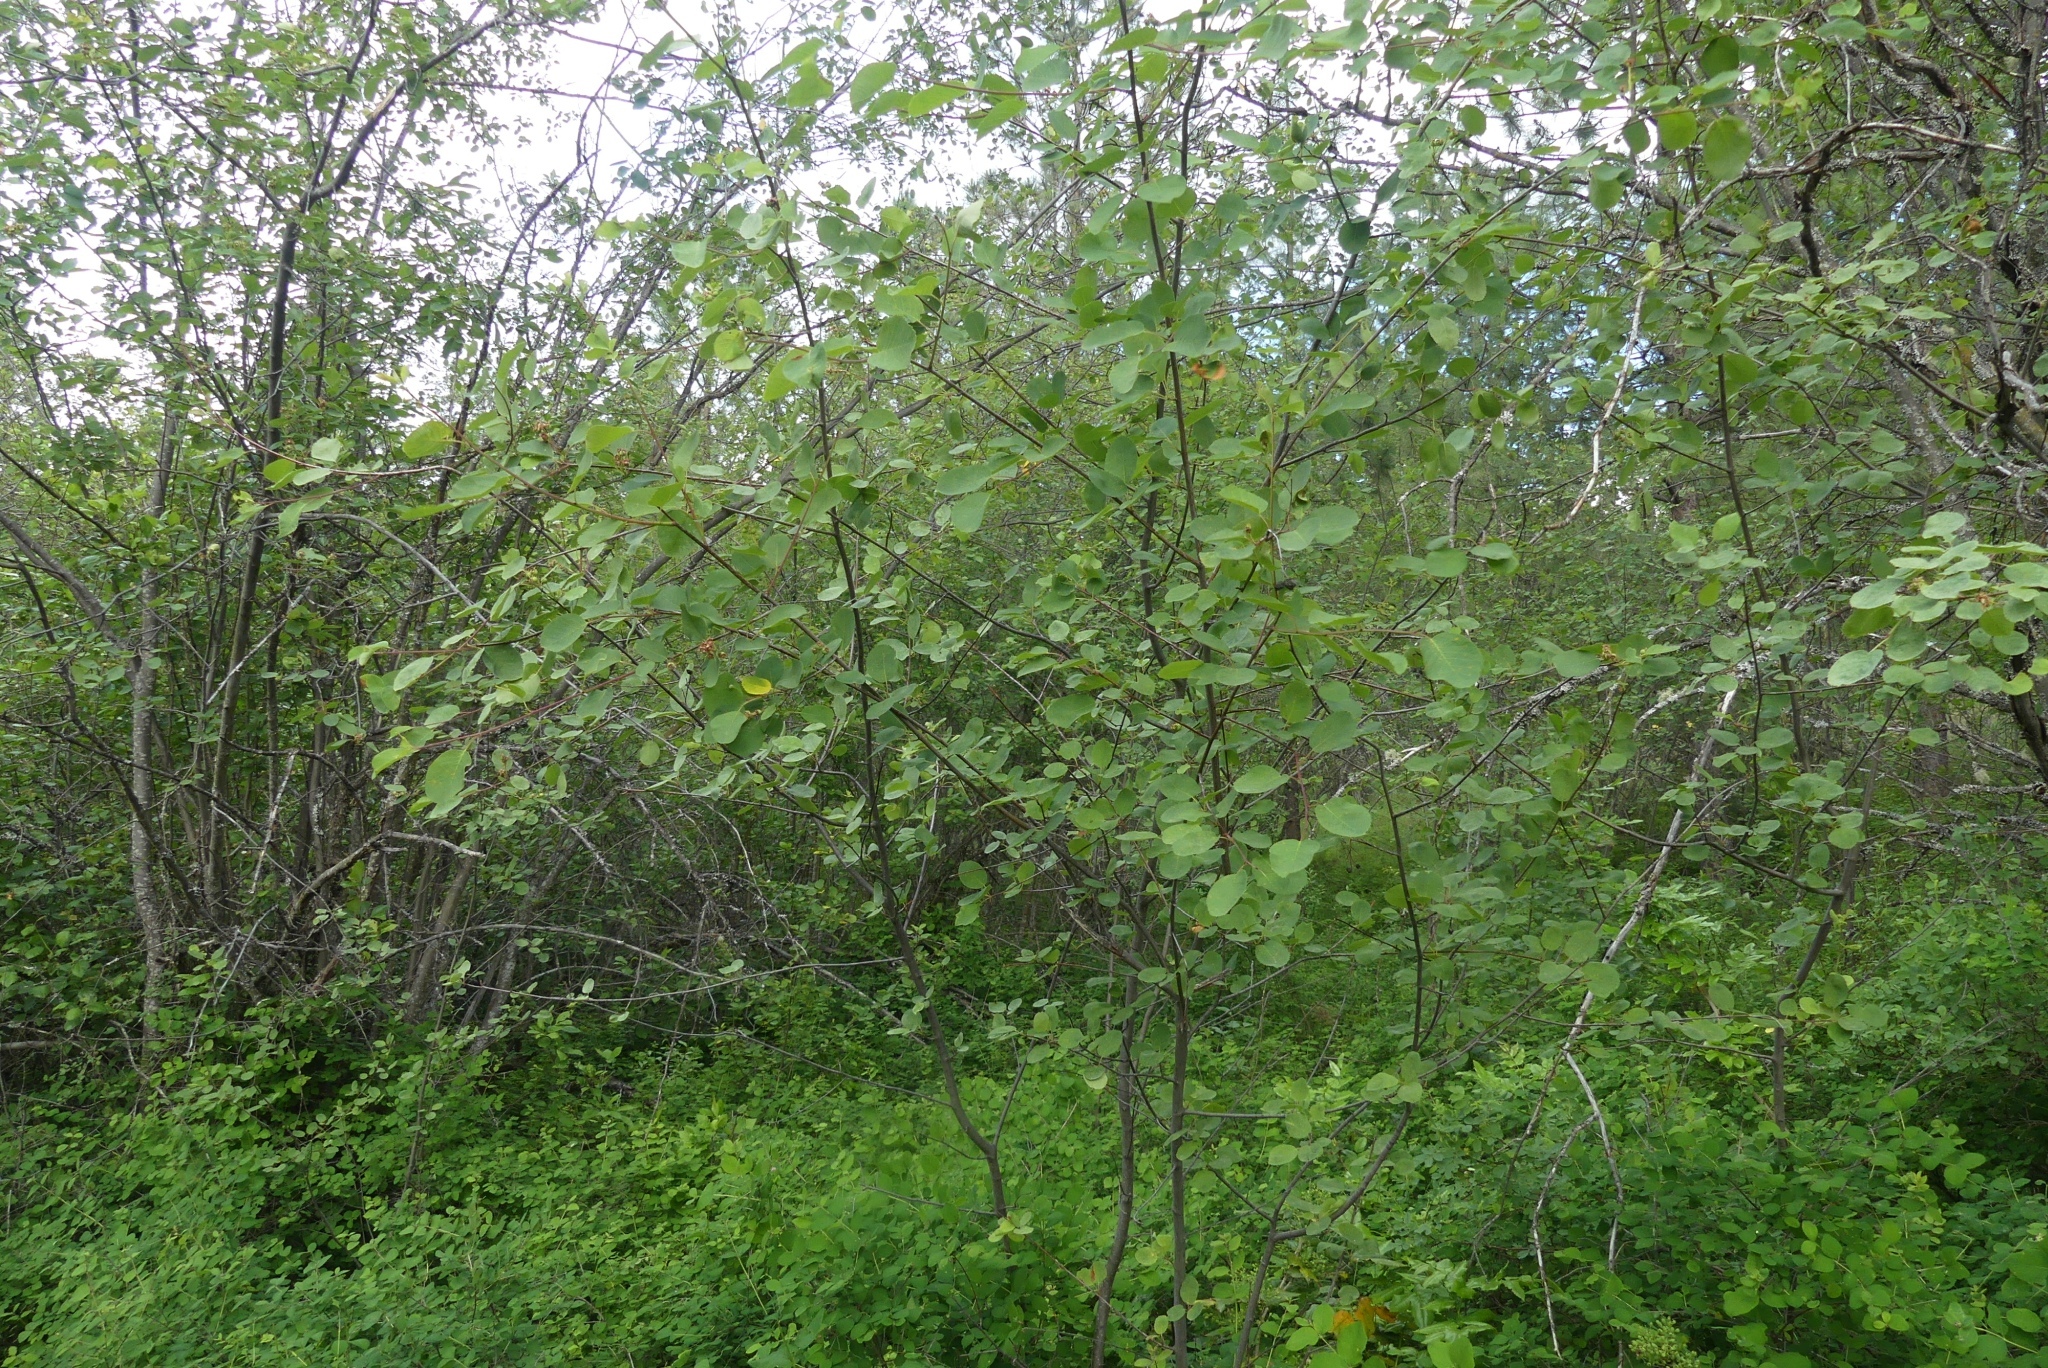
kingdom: Plantae
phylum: Tracheophyta
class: Magnoliopsida
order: Rosales
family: Rosaceae
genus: Amelanchier
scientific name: Amelanchier alnifolia
